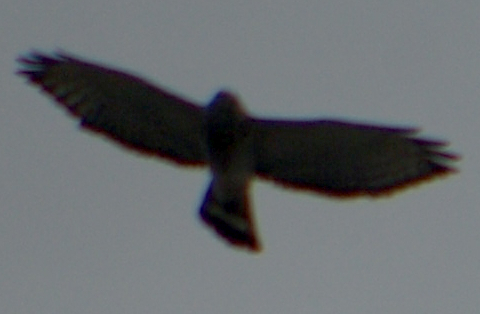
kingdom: Animalia
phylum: Chordata
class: Aves
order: Accipitriformes
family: Accipitridae
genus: Buteo
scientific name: Buteo platypterus
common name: Broad-winged hawk
